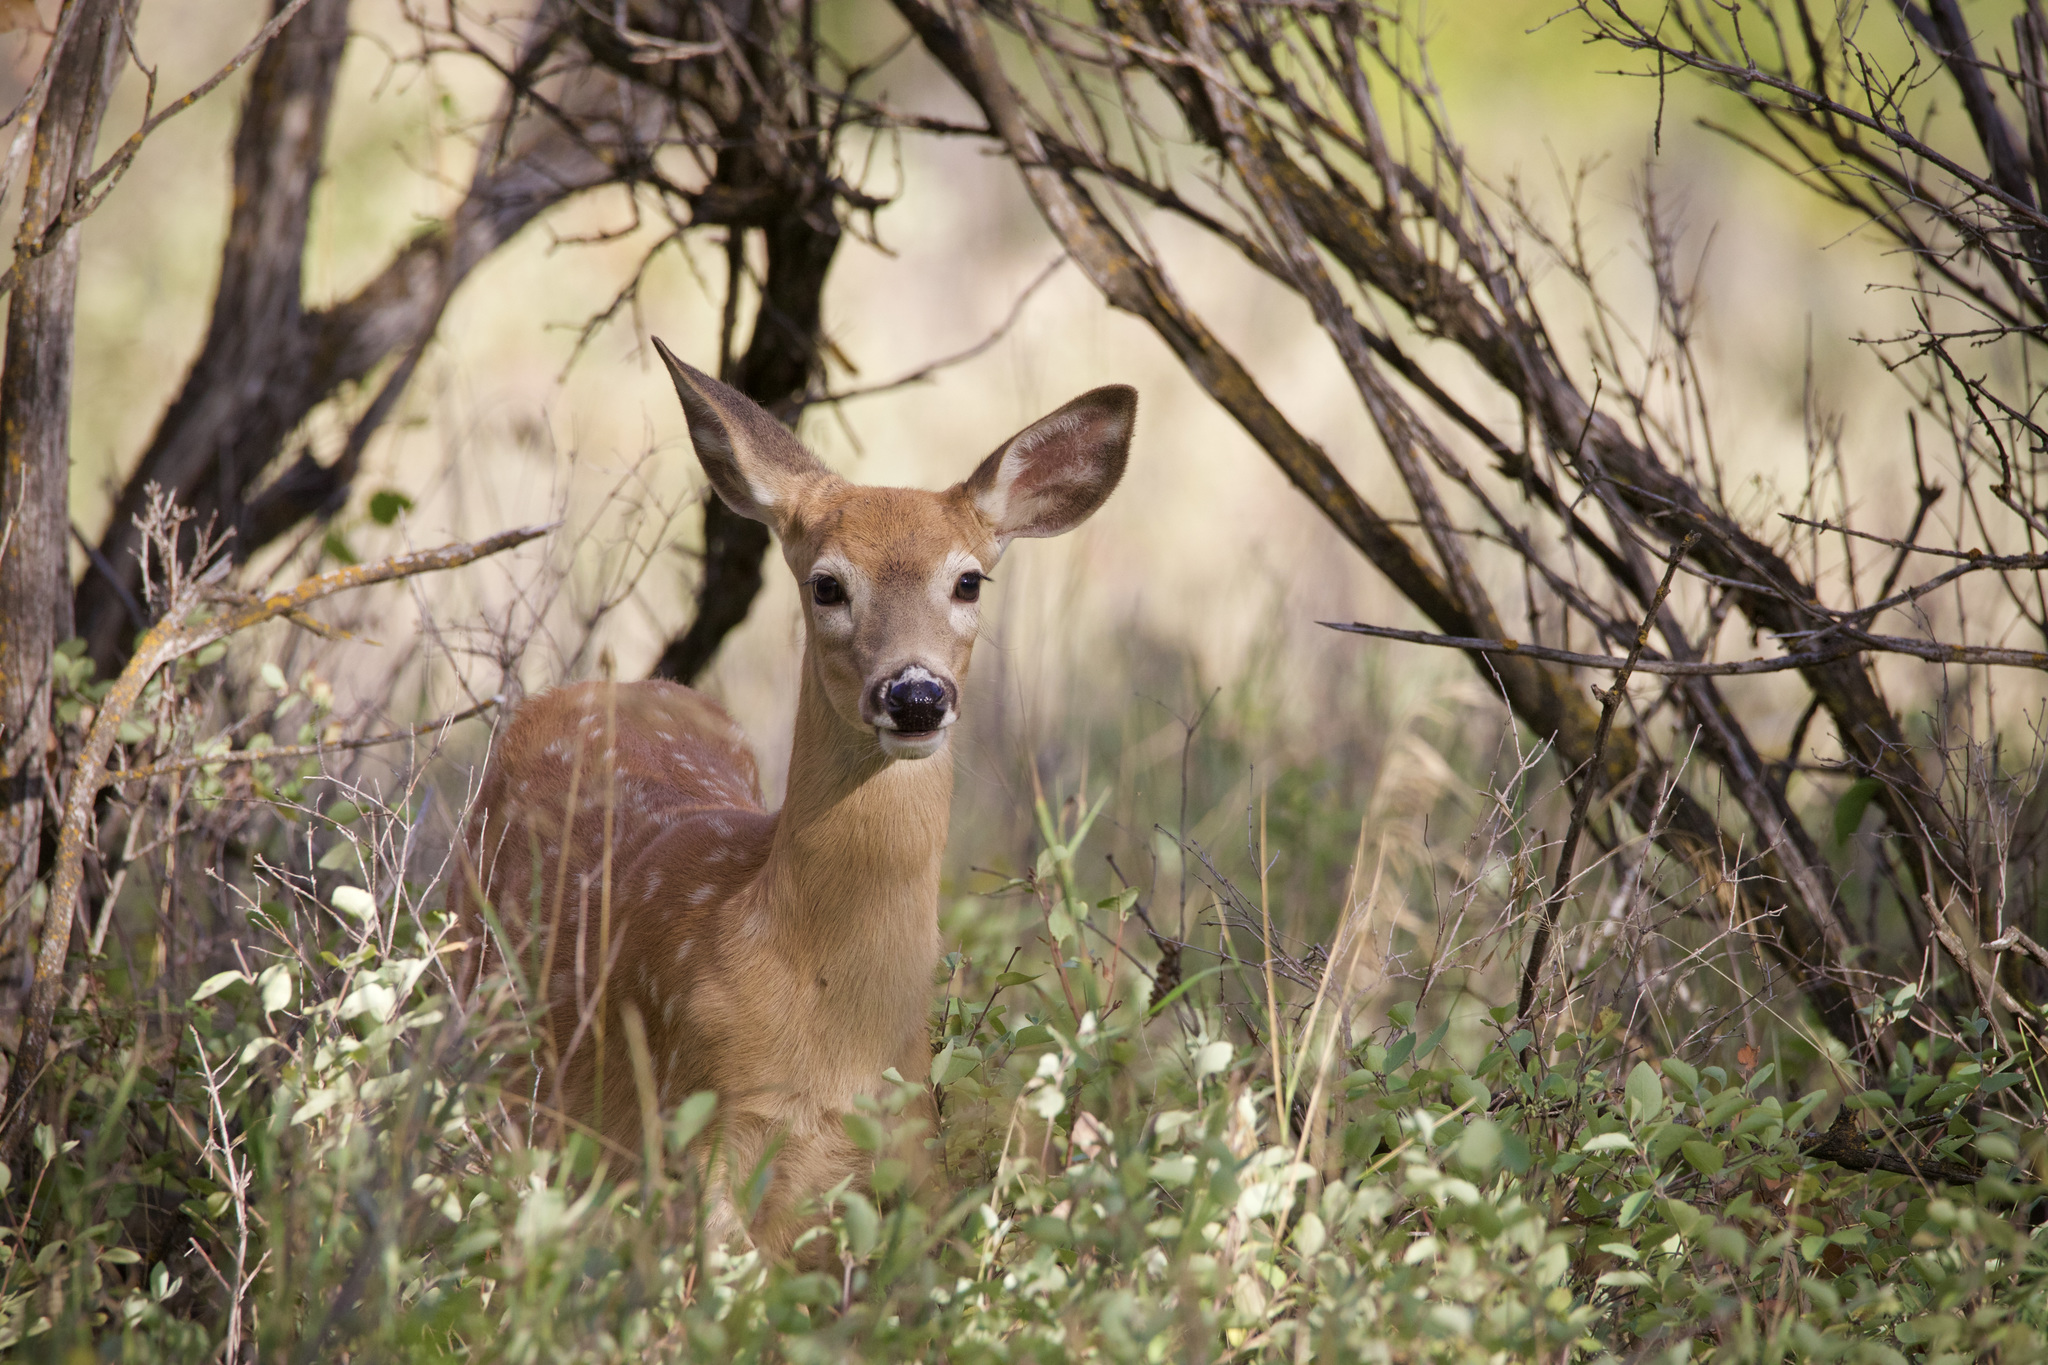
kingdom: Animalia
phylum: Chordata
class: Mammalia
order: Artiodactyla
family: Cervidae
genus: Odocoileus
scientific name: Odocoileus virginianus
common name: White-tailed deer
